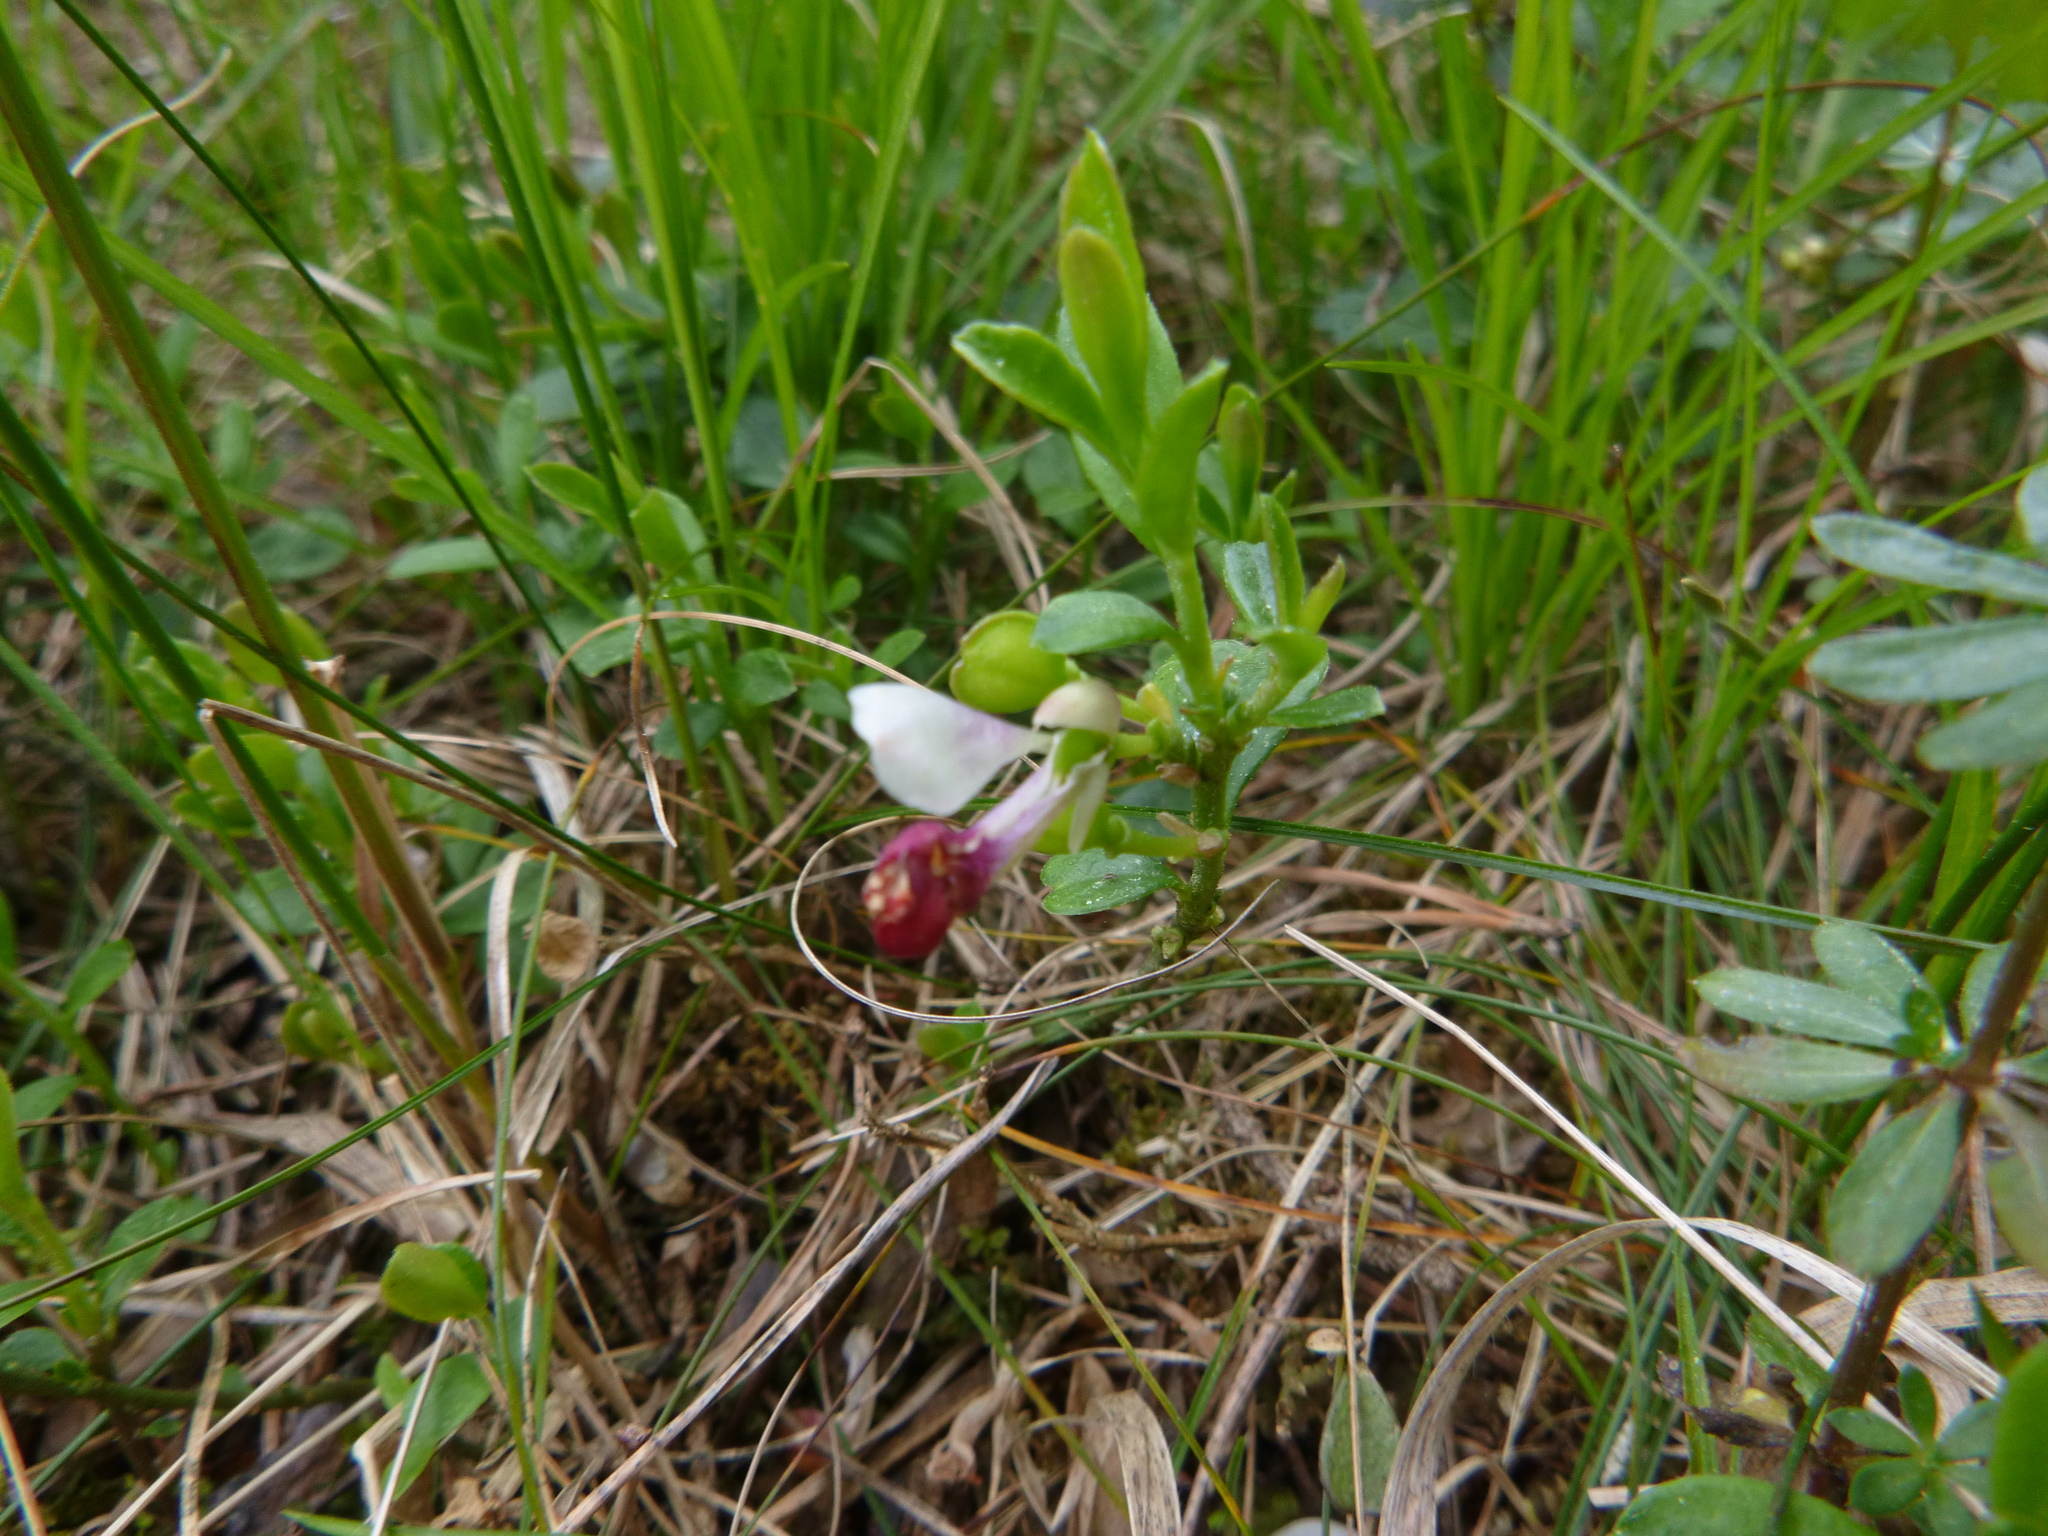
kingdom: Plantae
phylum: Tracheophyta
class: Magnoliopsida
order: Fabales
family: Polygalaceae
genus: Polygaloides
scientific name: Polygaloides chamaebuxus
